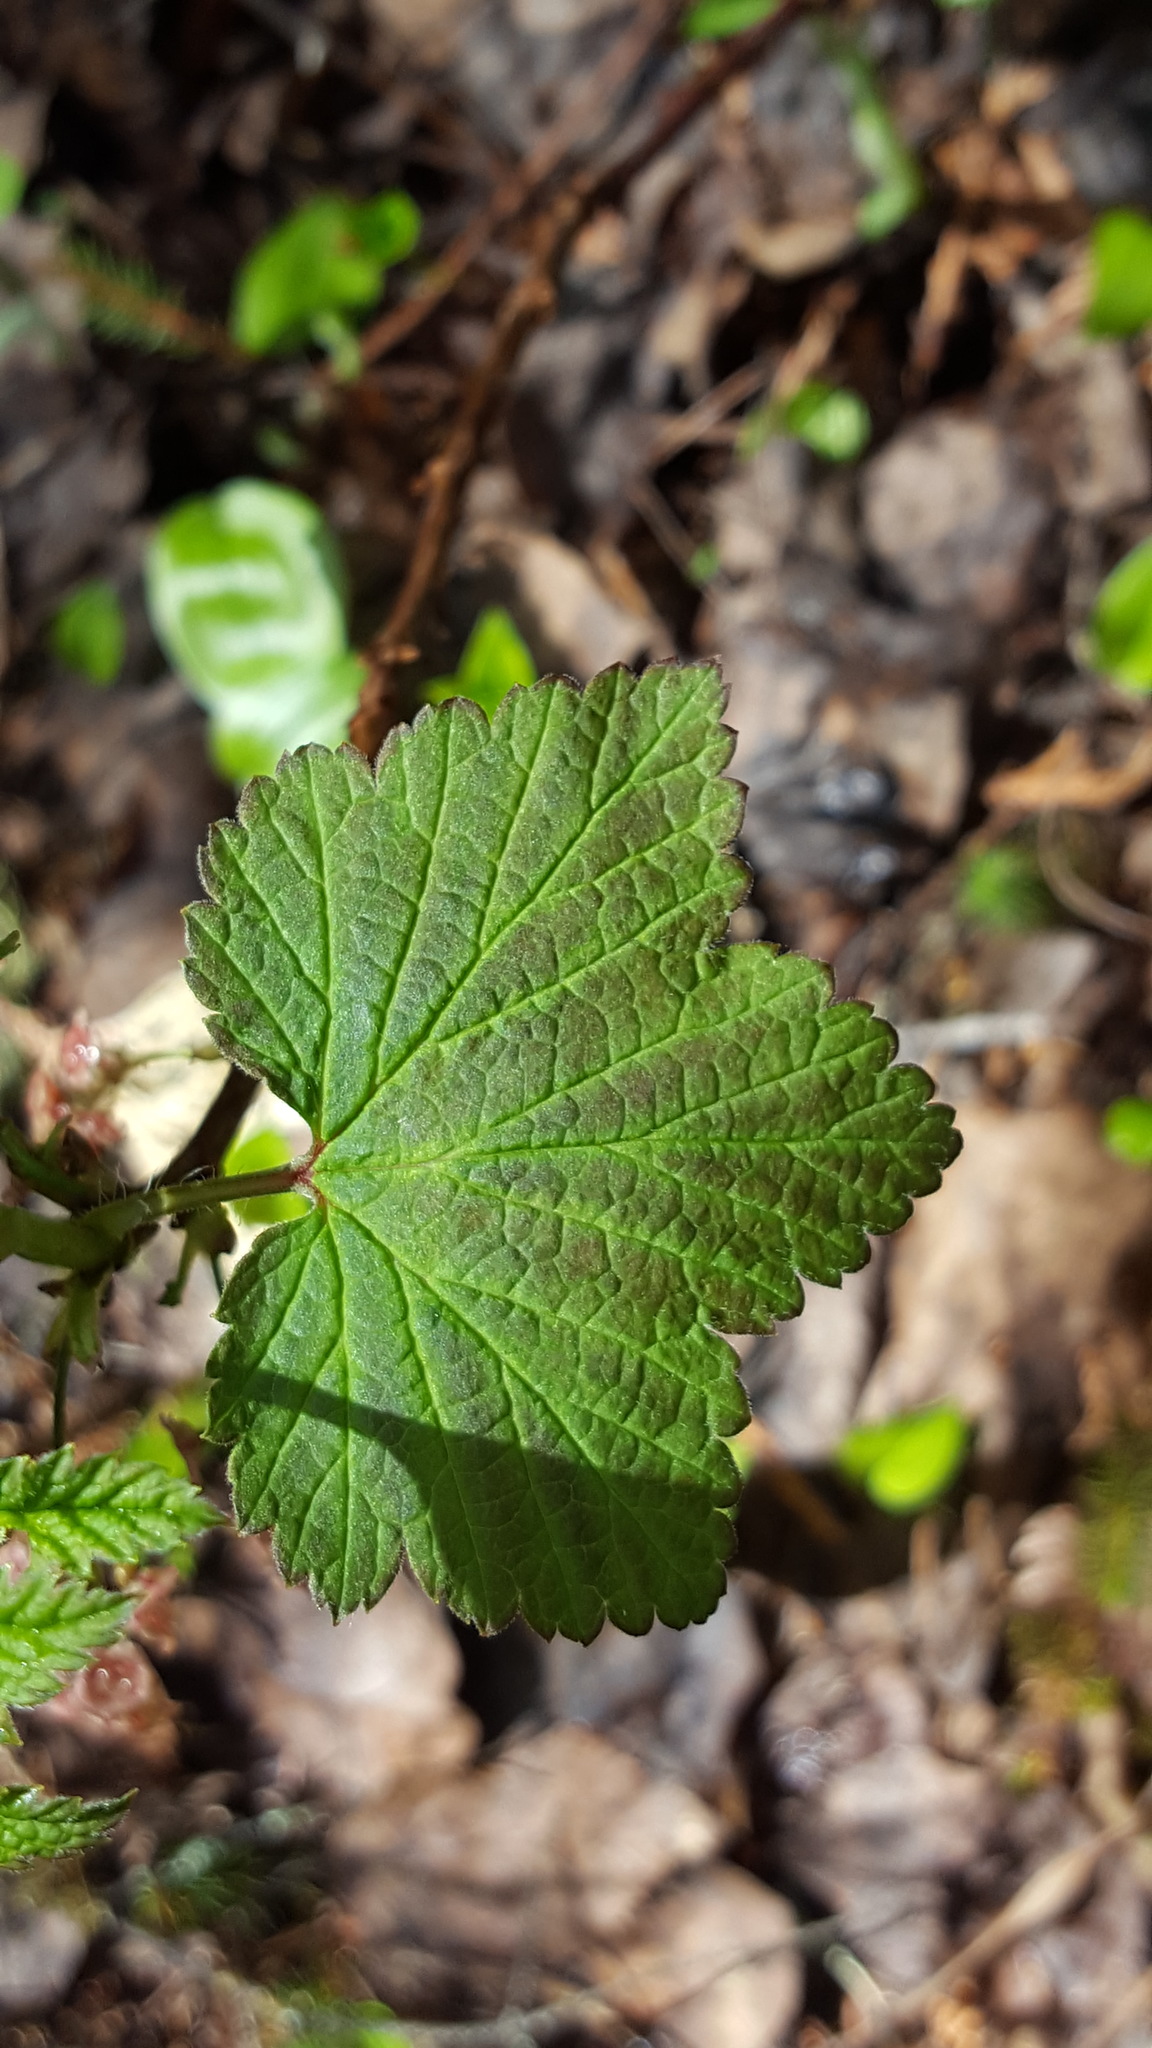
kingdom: Plantae
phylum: Tracheophyta
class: Magnoliopsida
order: Saxifragales
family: Grossulariaceae
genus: Ribes
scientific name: Ribes triste
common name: Swamp red currant
